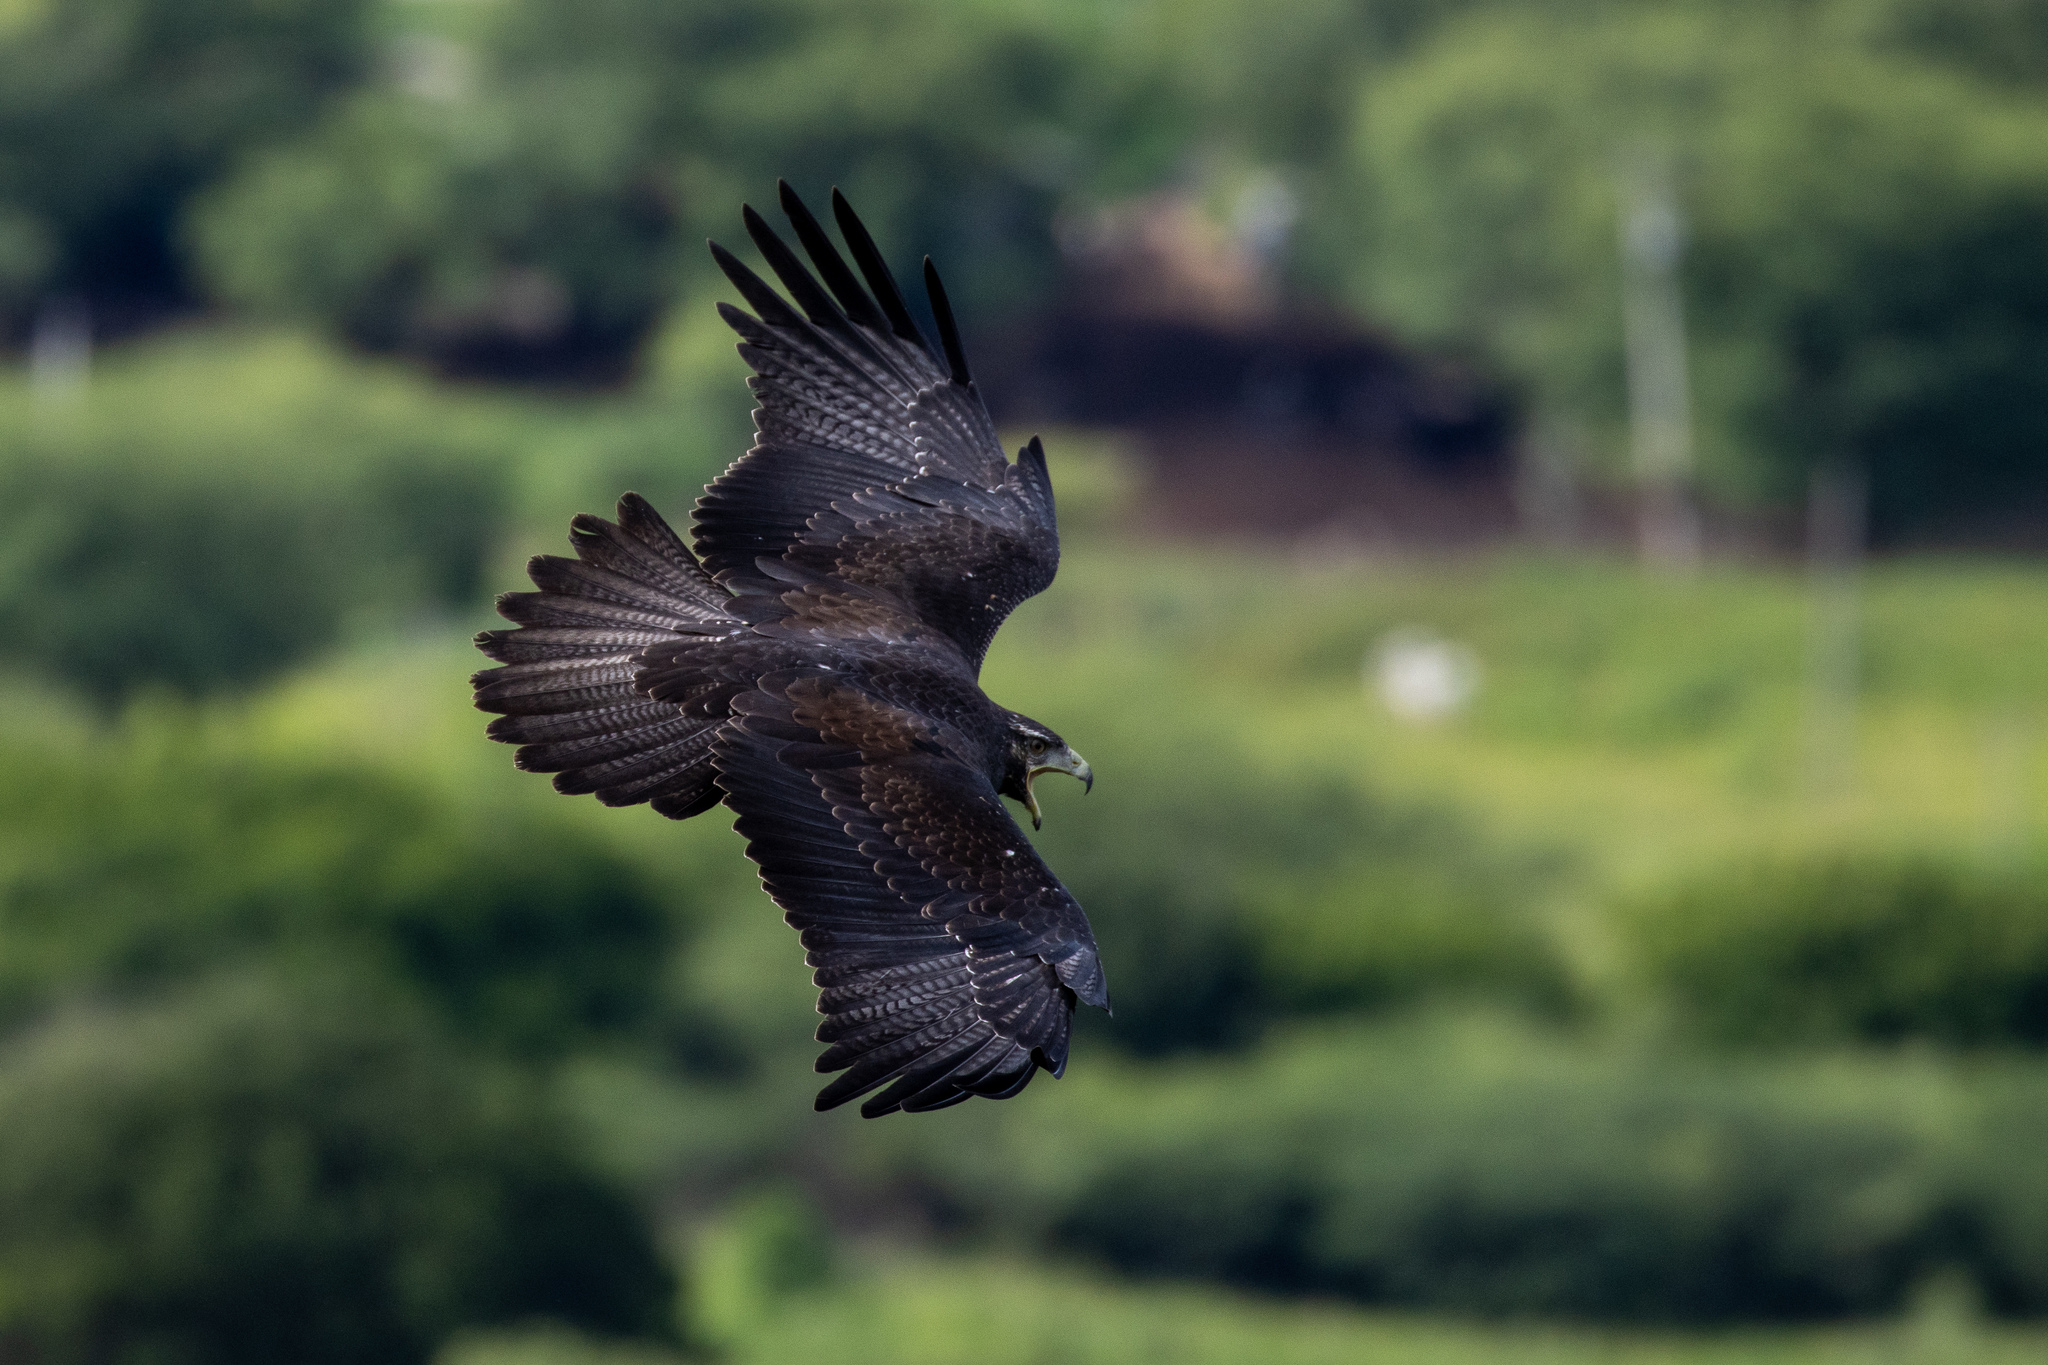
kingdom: Animalia
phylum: Chordata
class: Aves
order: Accipitriformes
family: Accipitridae
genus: Geranoaetus
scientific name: Geranoaetus melanoleucus
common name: Black-chested buzzard-eagle
